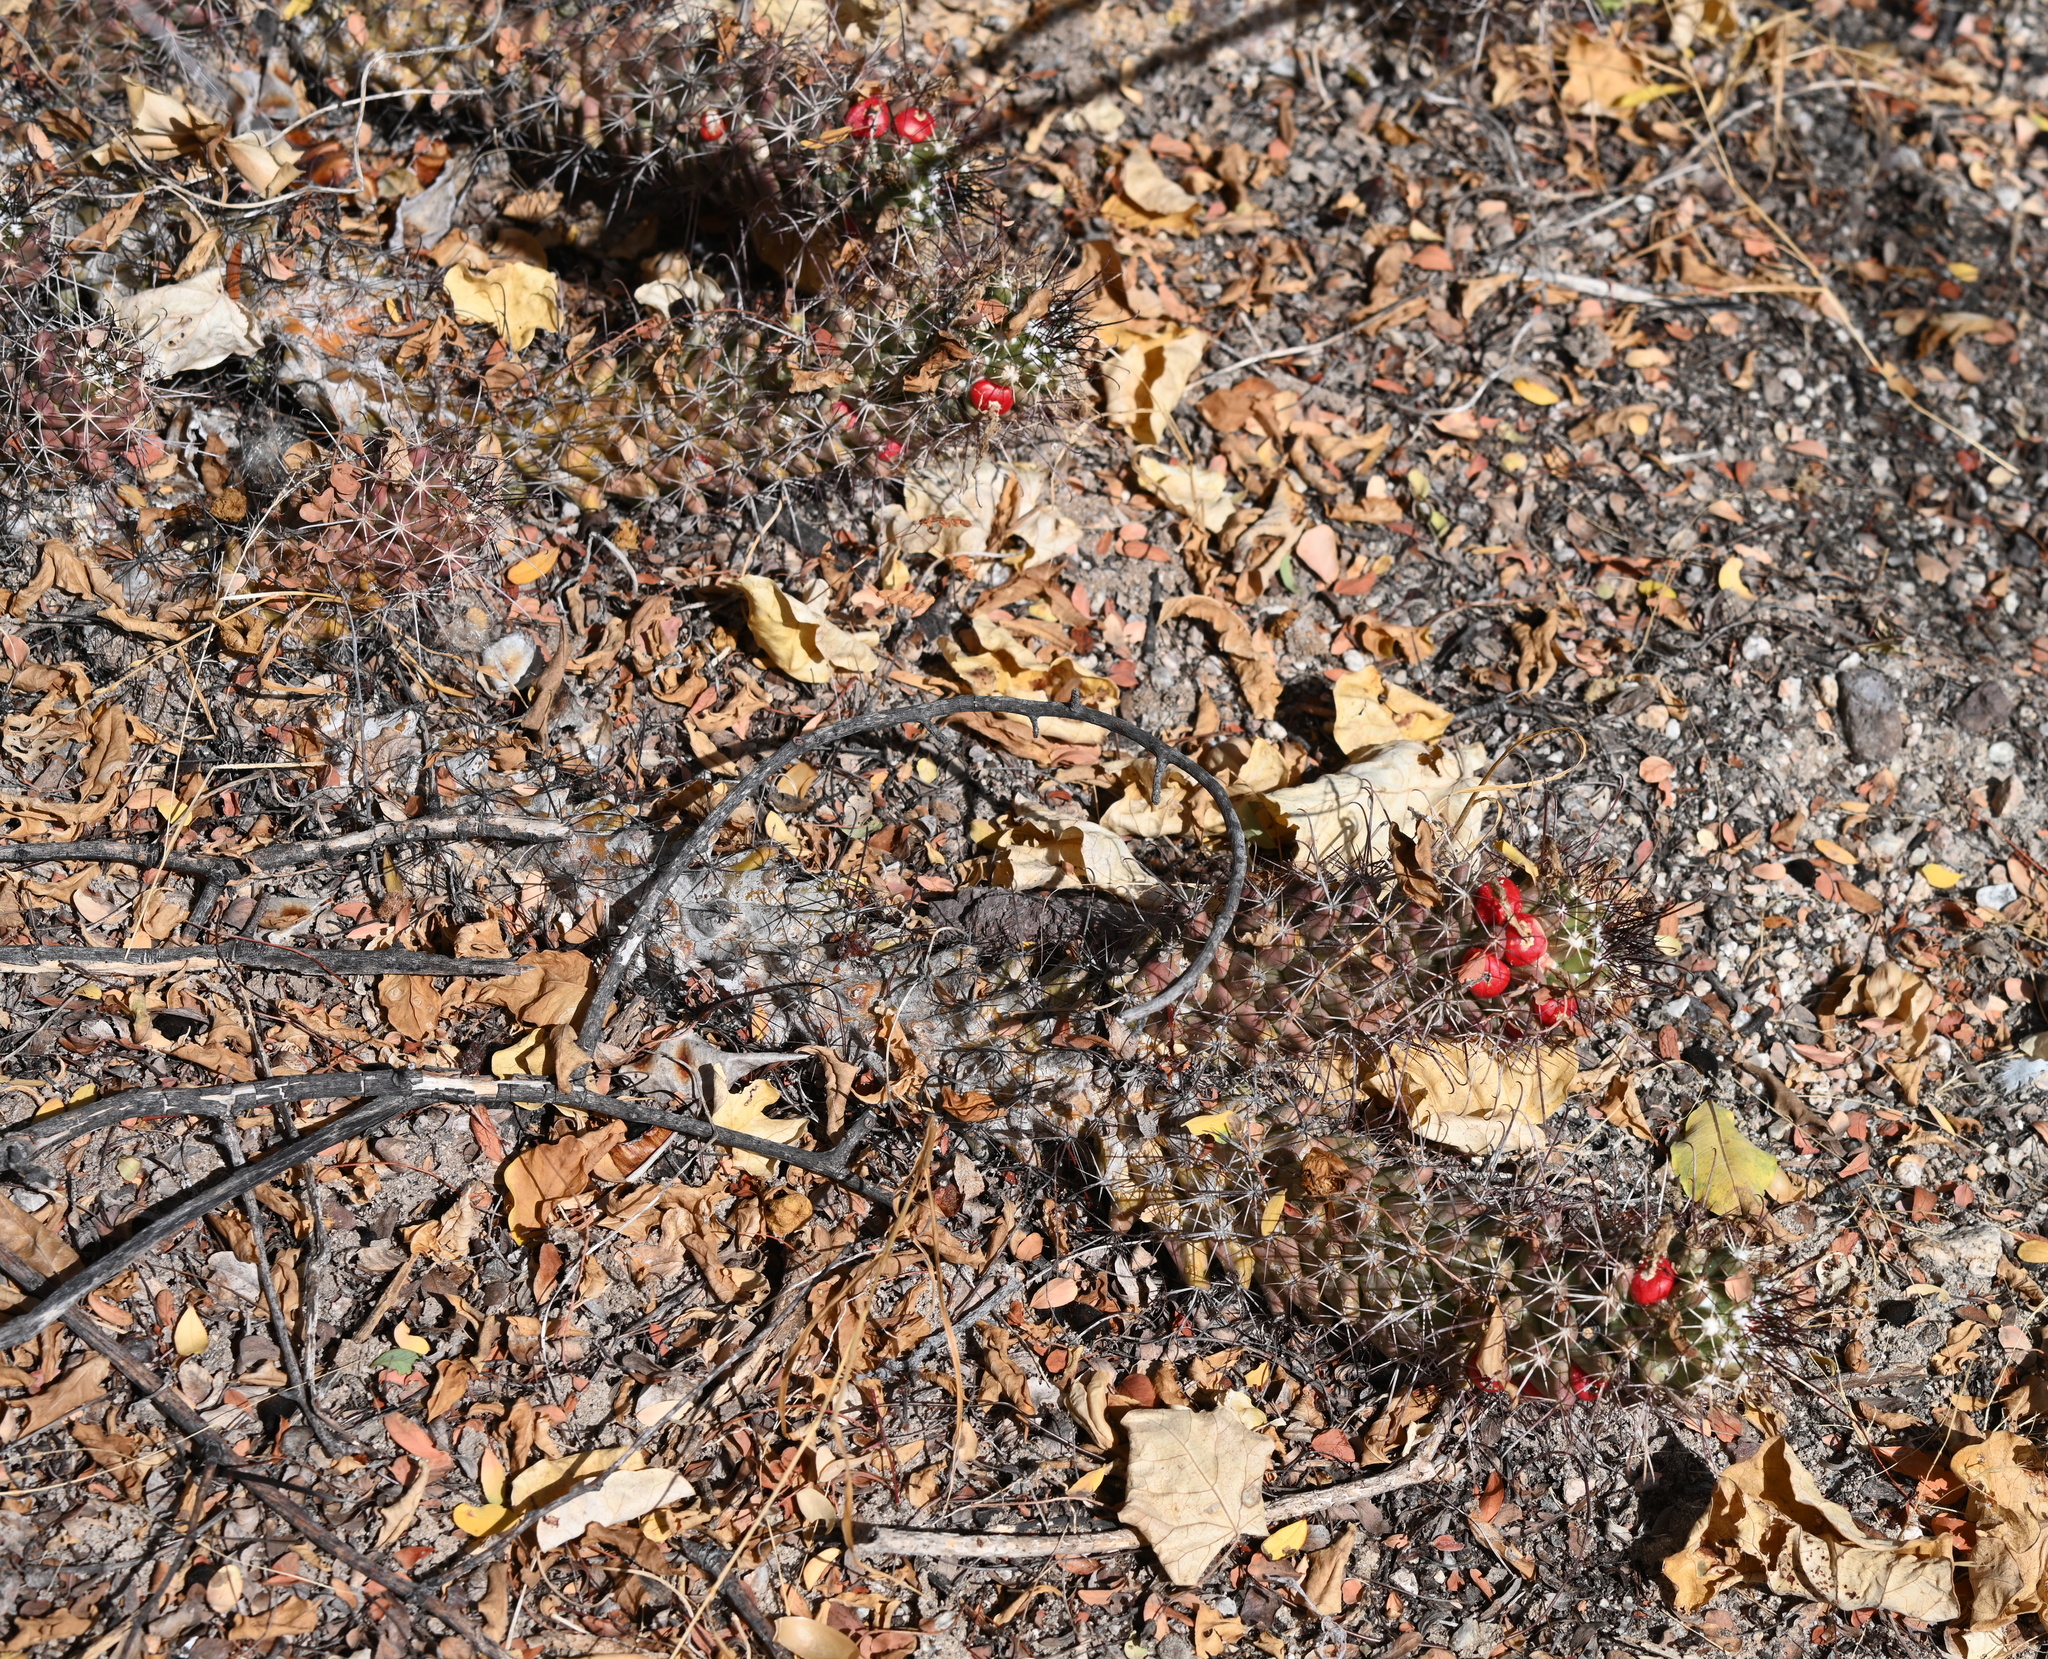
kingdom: Plantae
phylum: Tracheophyta
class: Magnoliopsida
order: Caryophyllales
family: Cactaceae
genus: Cochemiea
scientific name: Cochemiea poselgeri
